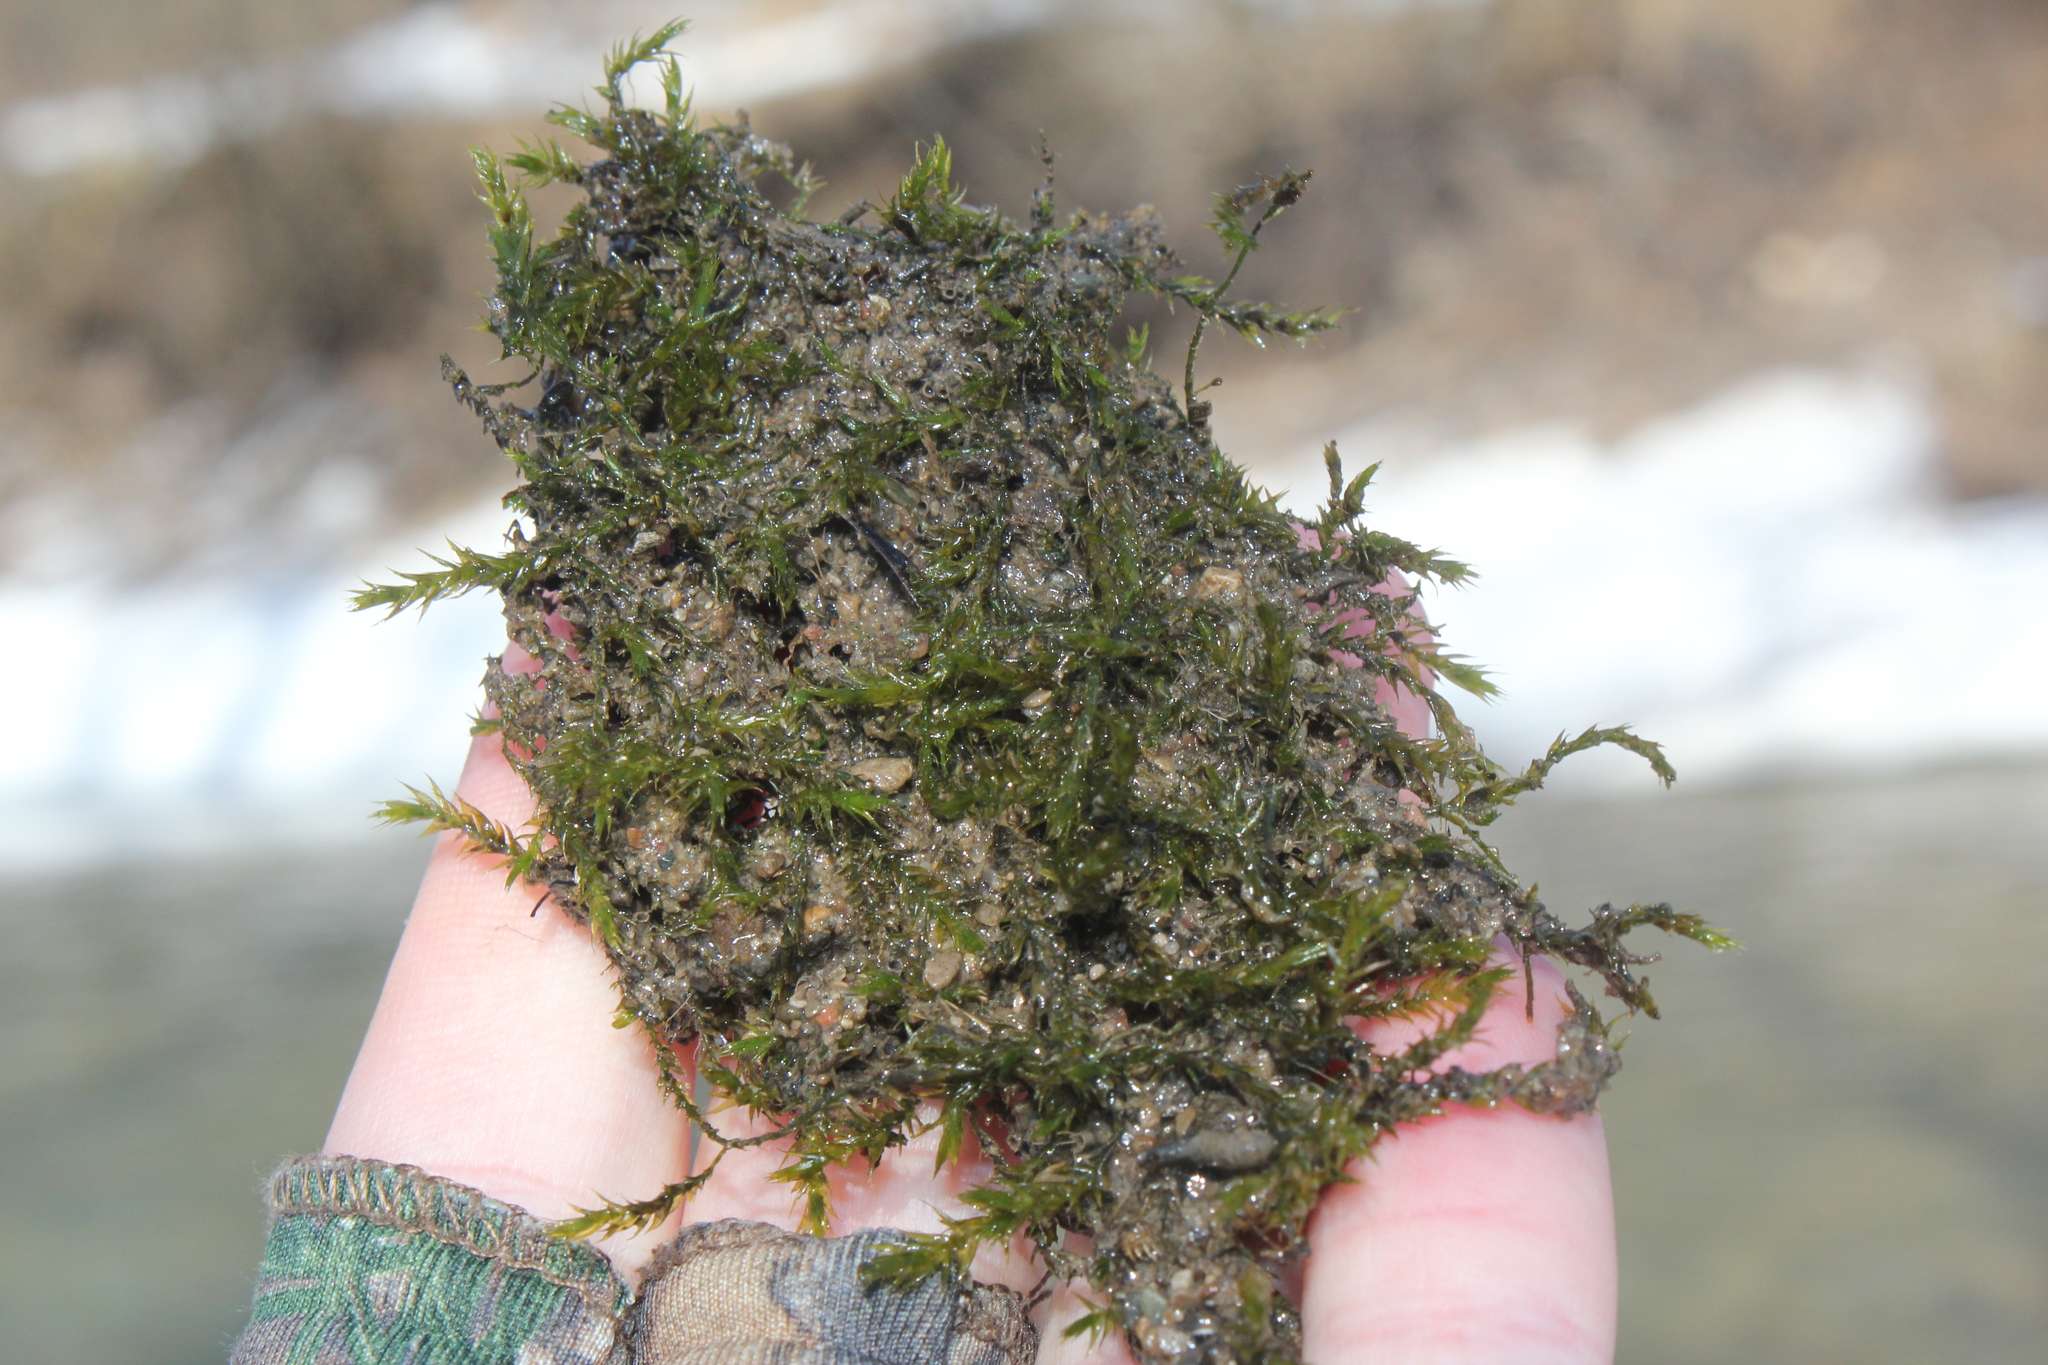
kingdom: Plantae
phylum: Bryophyta
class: Bryopsida
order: Hypnales
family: Amblystegiaceae
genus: Leptodictyum
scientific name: Leptodictyum riparium
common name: Riparian feather moss
